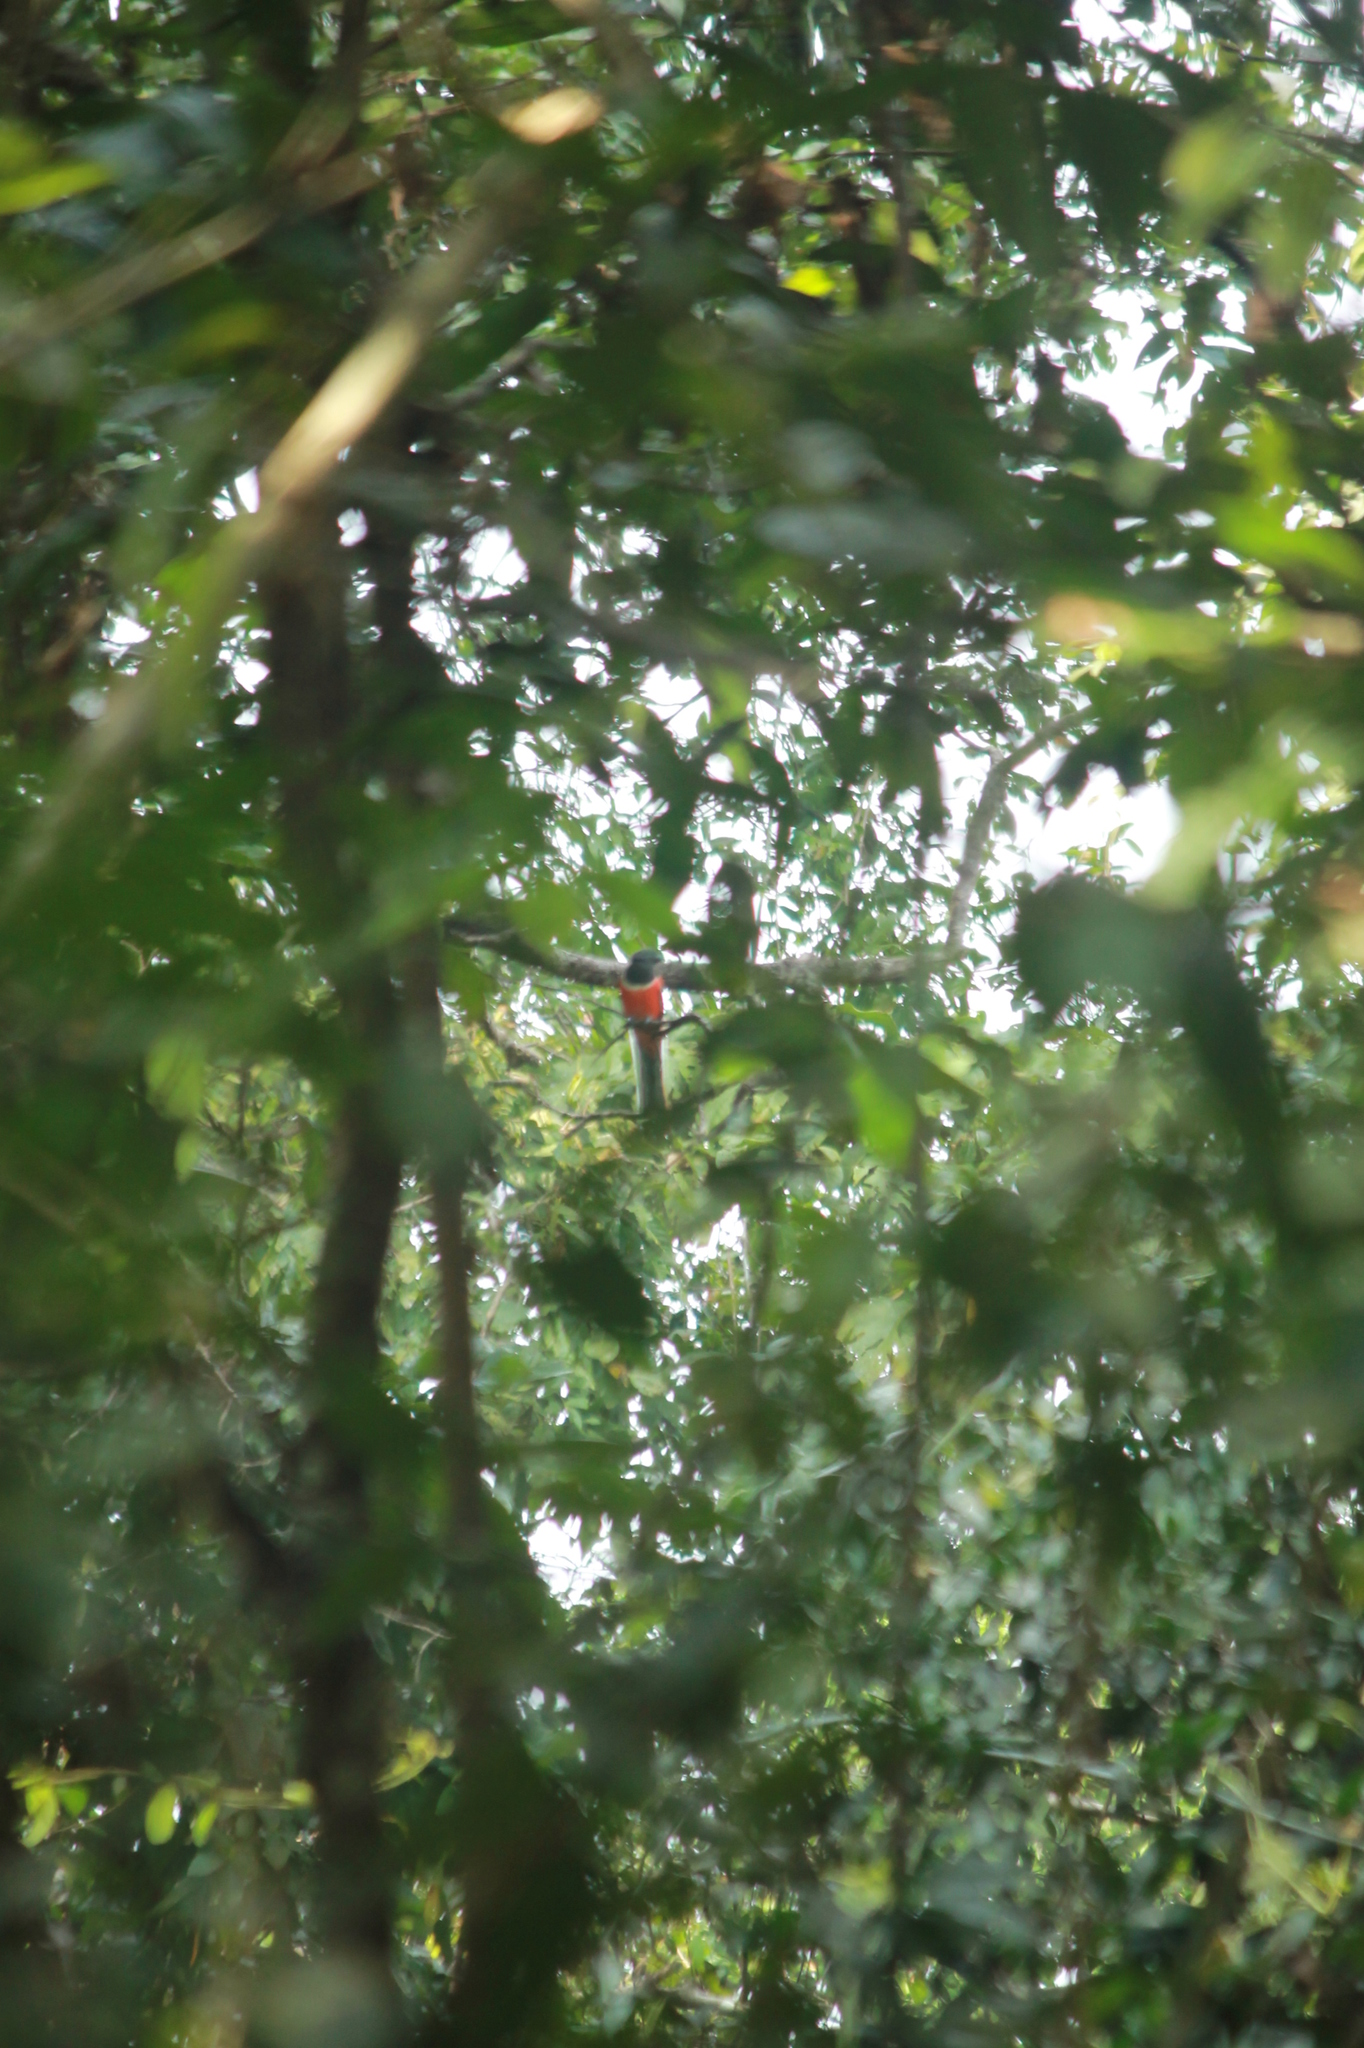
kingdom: Animalia
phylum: Chordata
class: Aves
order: Trogoniformes
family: Trogonidae
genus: Harpactes
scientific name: Harpactes fasciatus
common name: Malabar trogon
